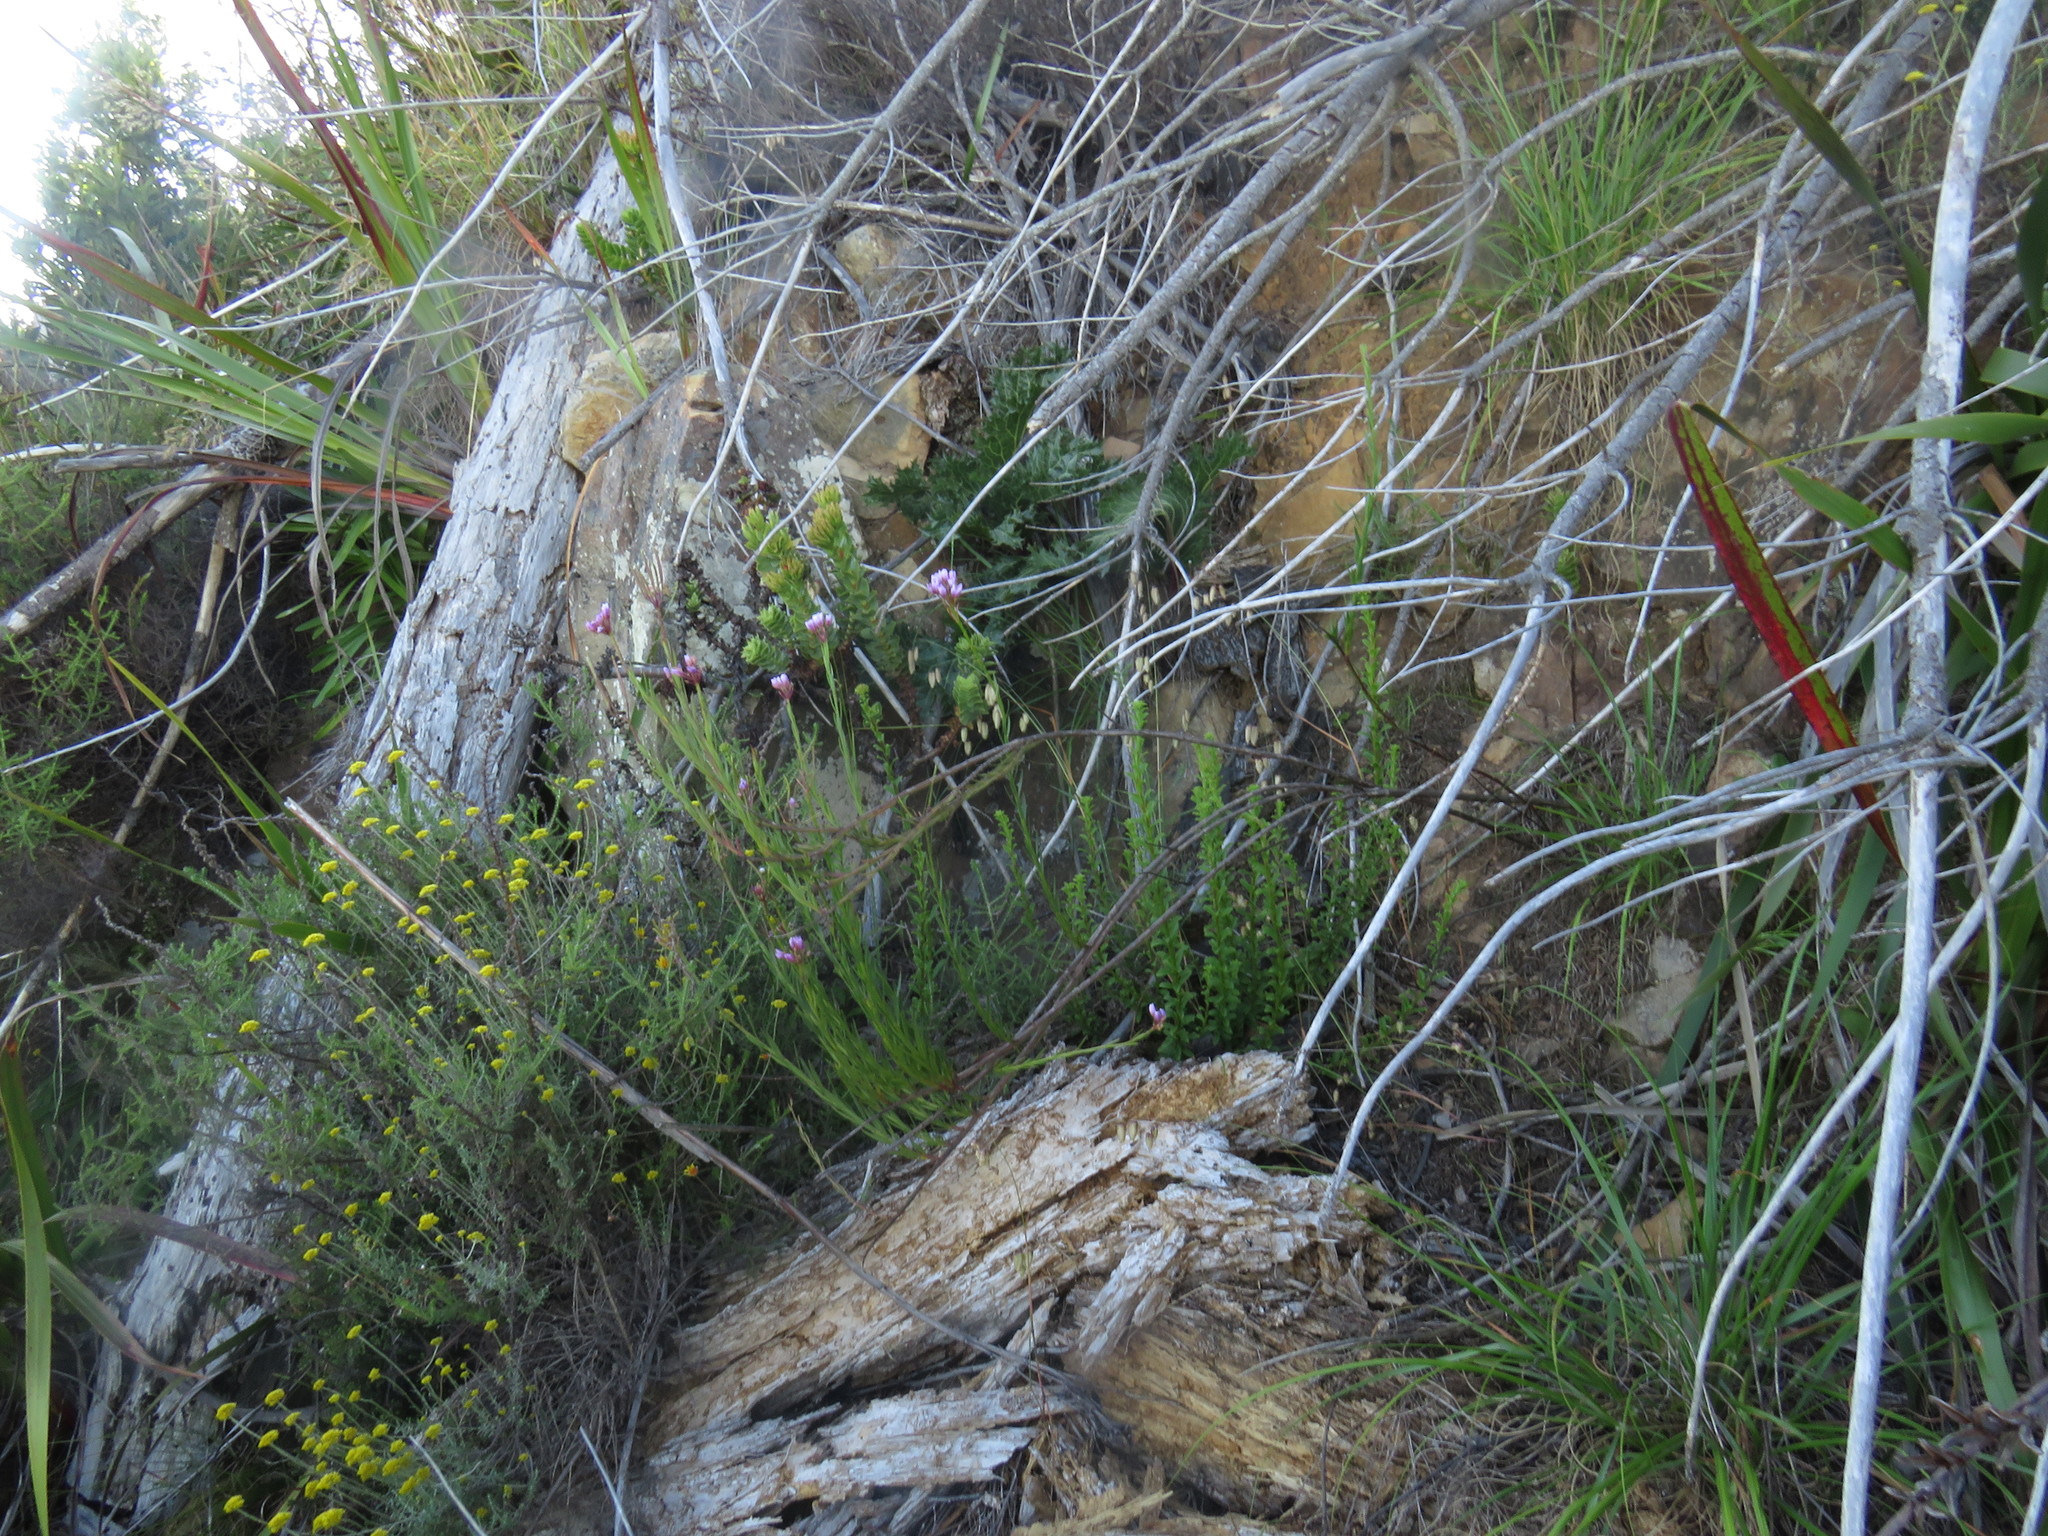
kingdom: Plantae
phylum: Tracheophyta
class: Magnoliopsida
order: Brassicales
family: Brassicaceae
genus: Heliophila
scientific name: Heliophila callosa
